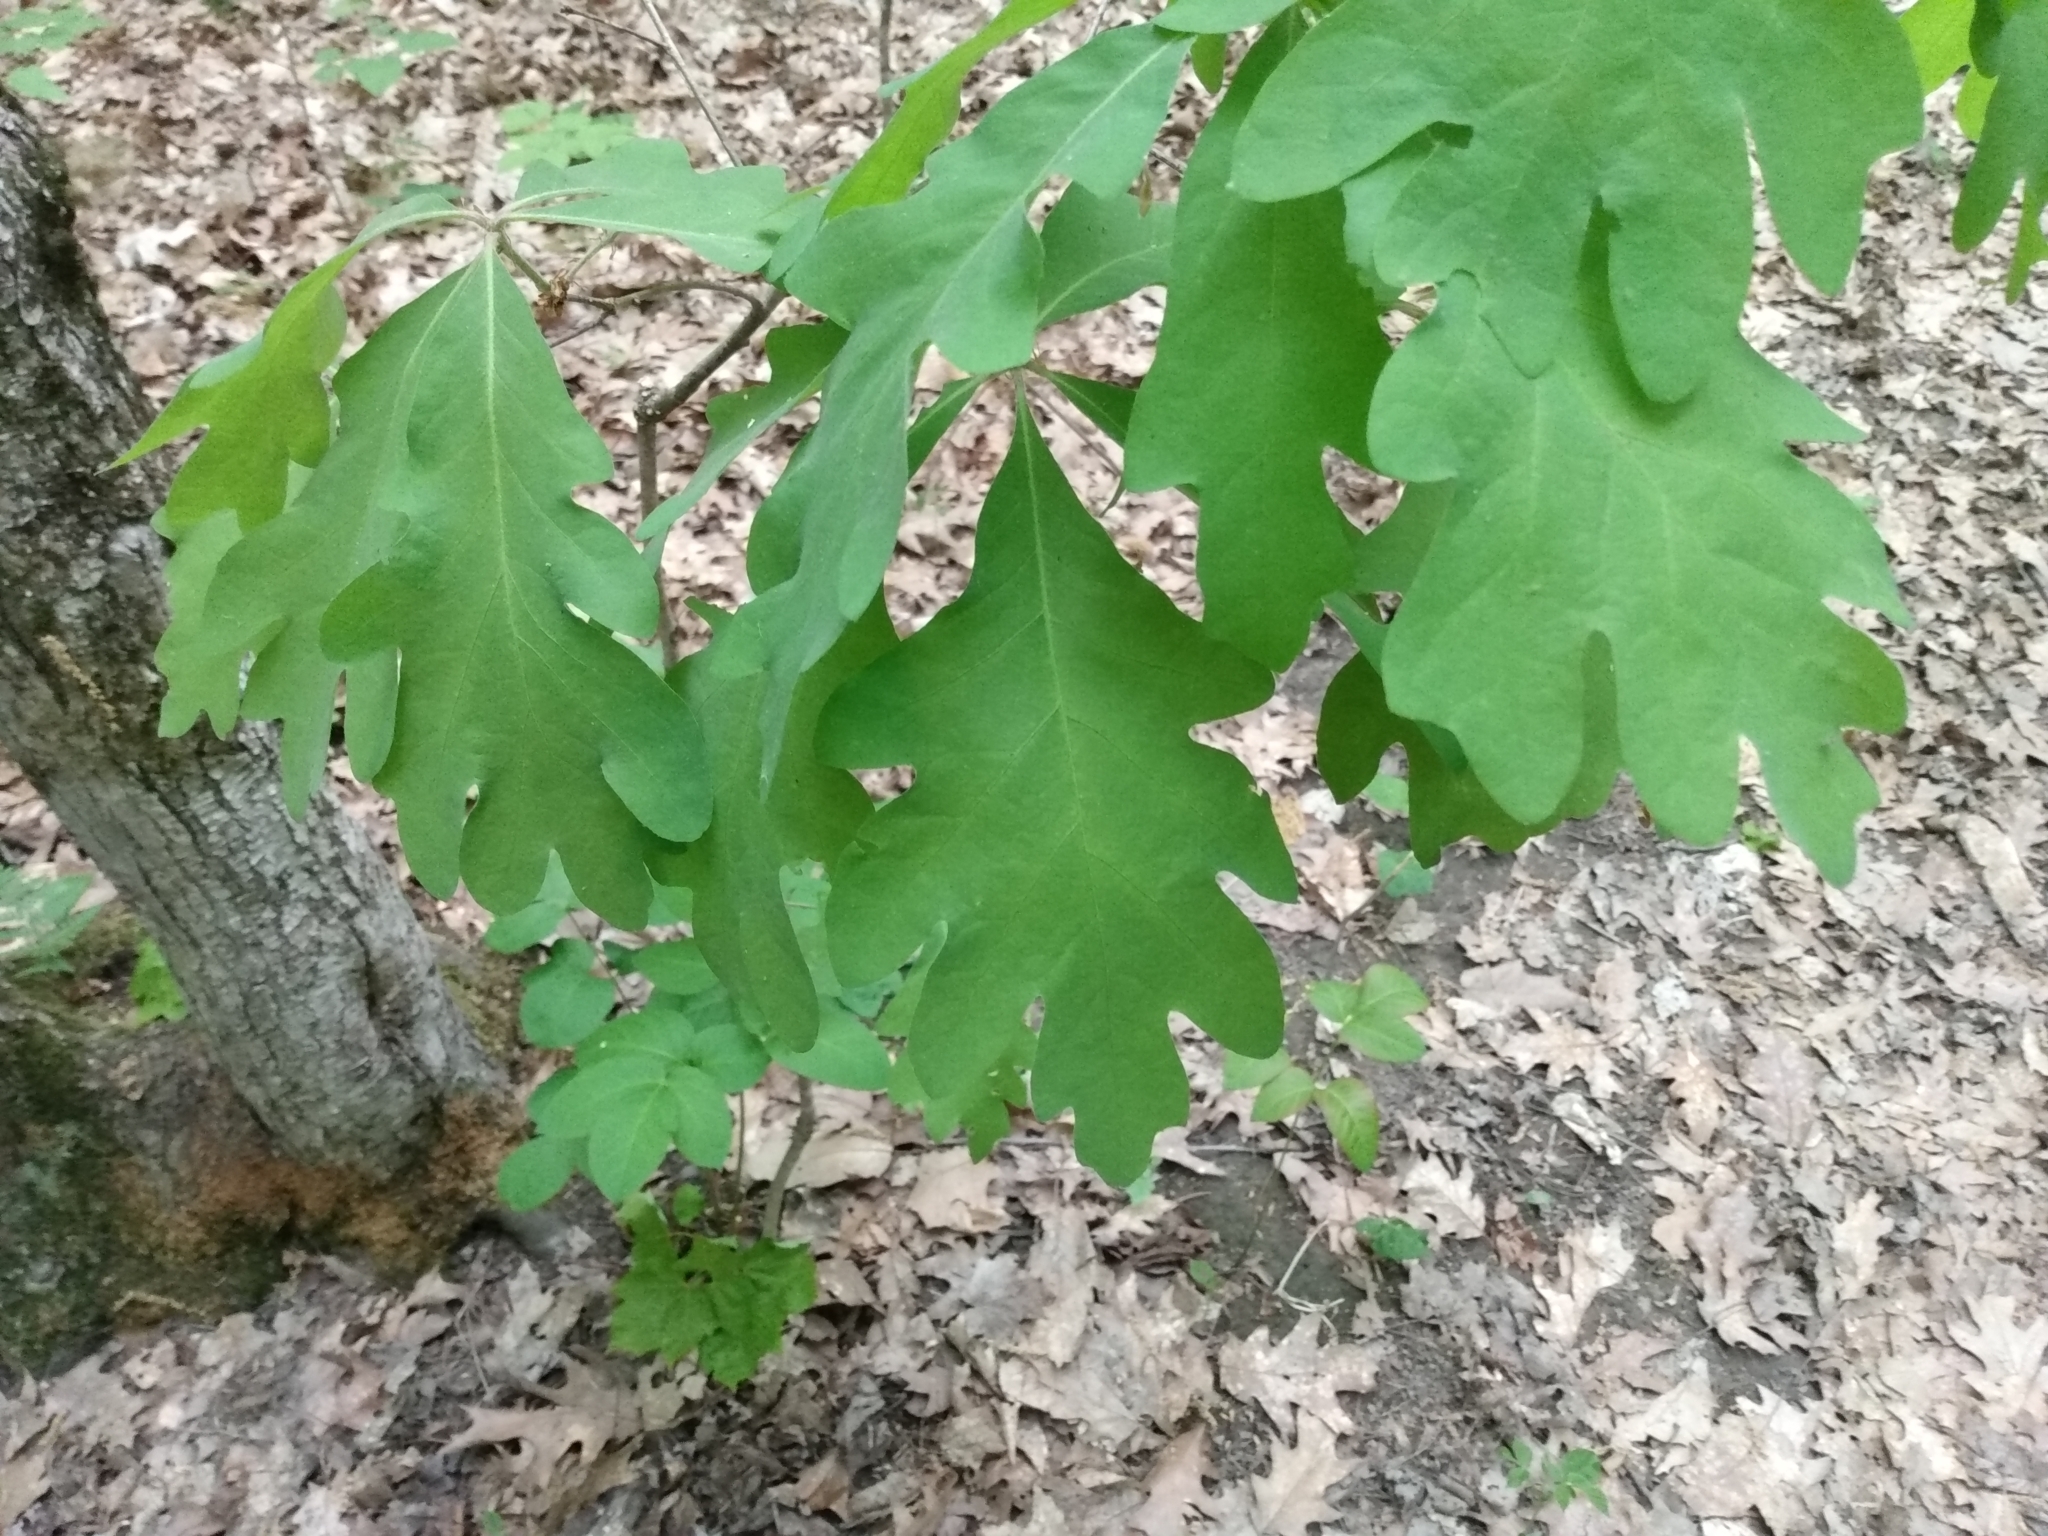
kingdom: Plantae
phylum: Tracheophyta
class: Magnoliopsida
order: Fagales
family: Fagaceae
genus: Quercus
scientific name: Quercus alba
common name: White oak
